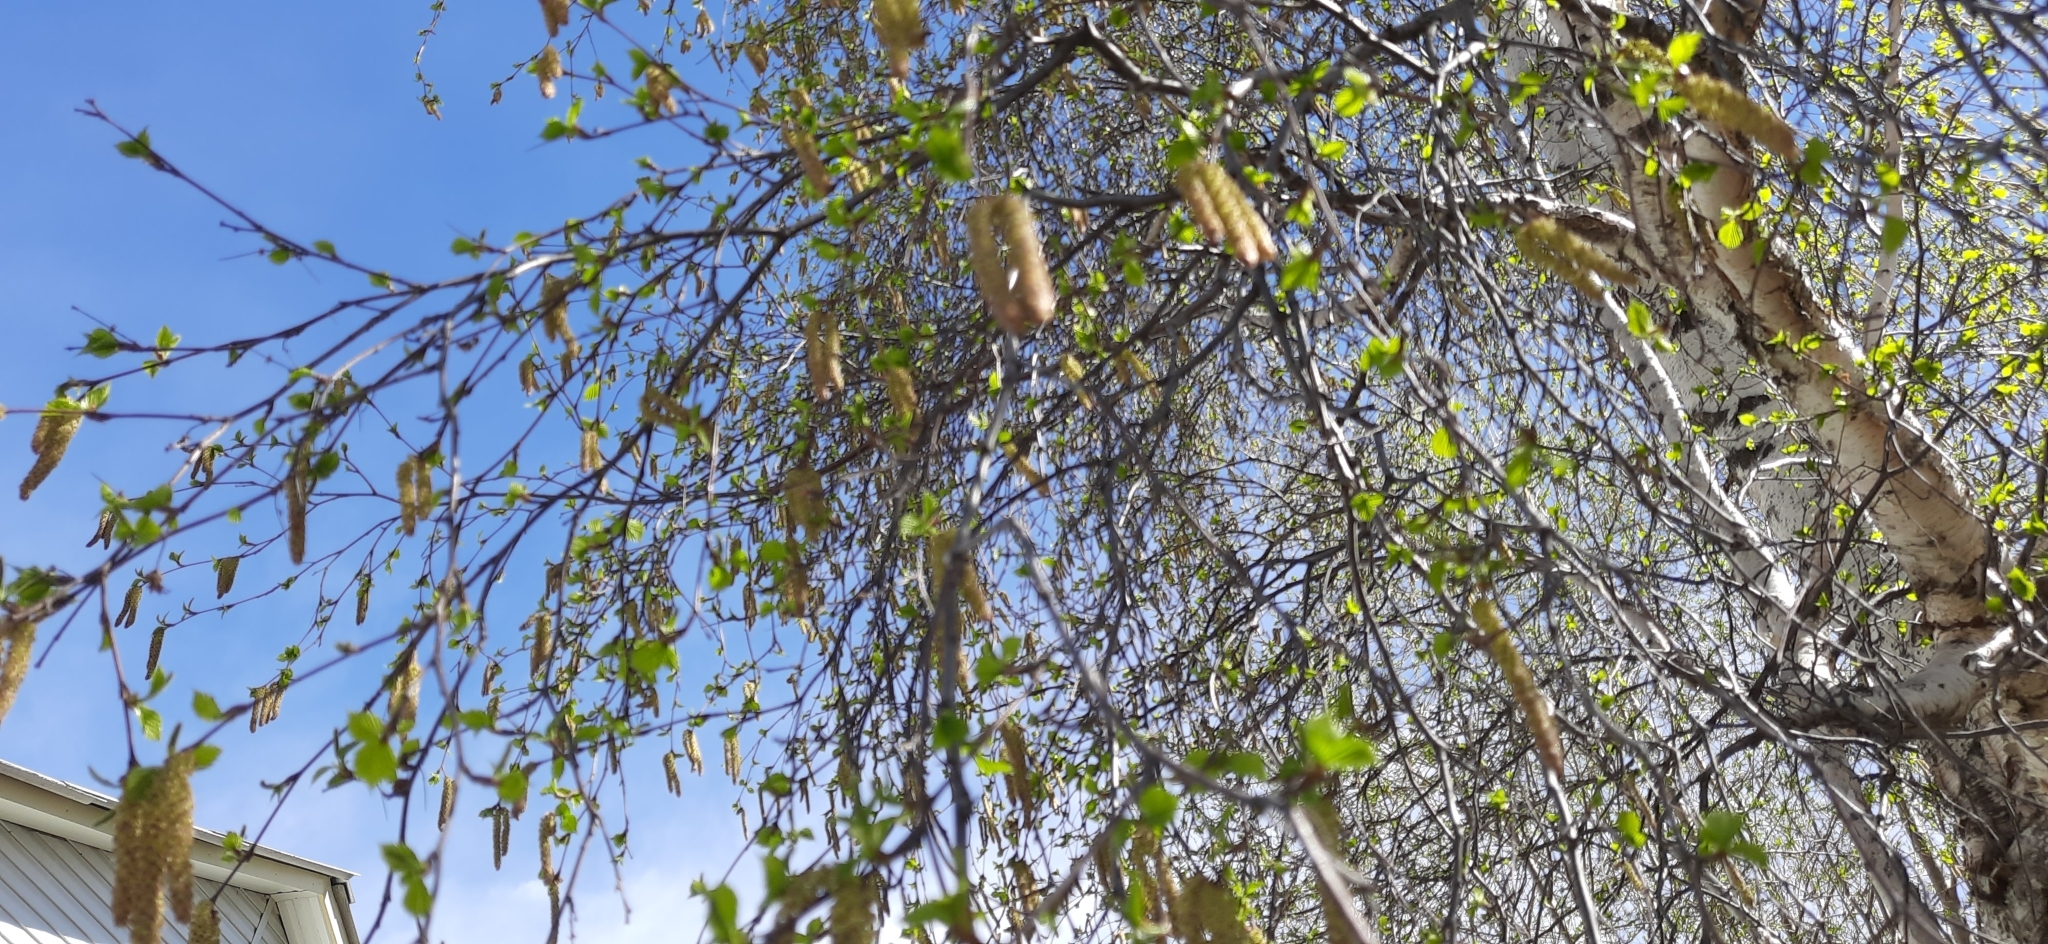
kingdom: Plantae
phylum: Tracheophyta
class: Magnoliopsida
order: Fagales
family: Betulaceae
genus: Betula
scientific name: Betula pendula
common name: Silver birch
